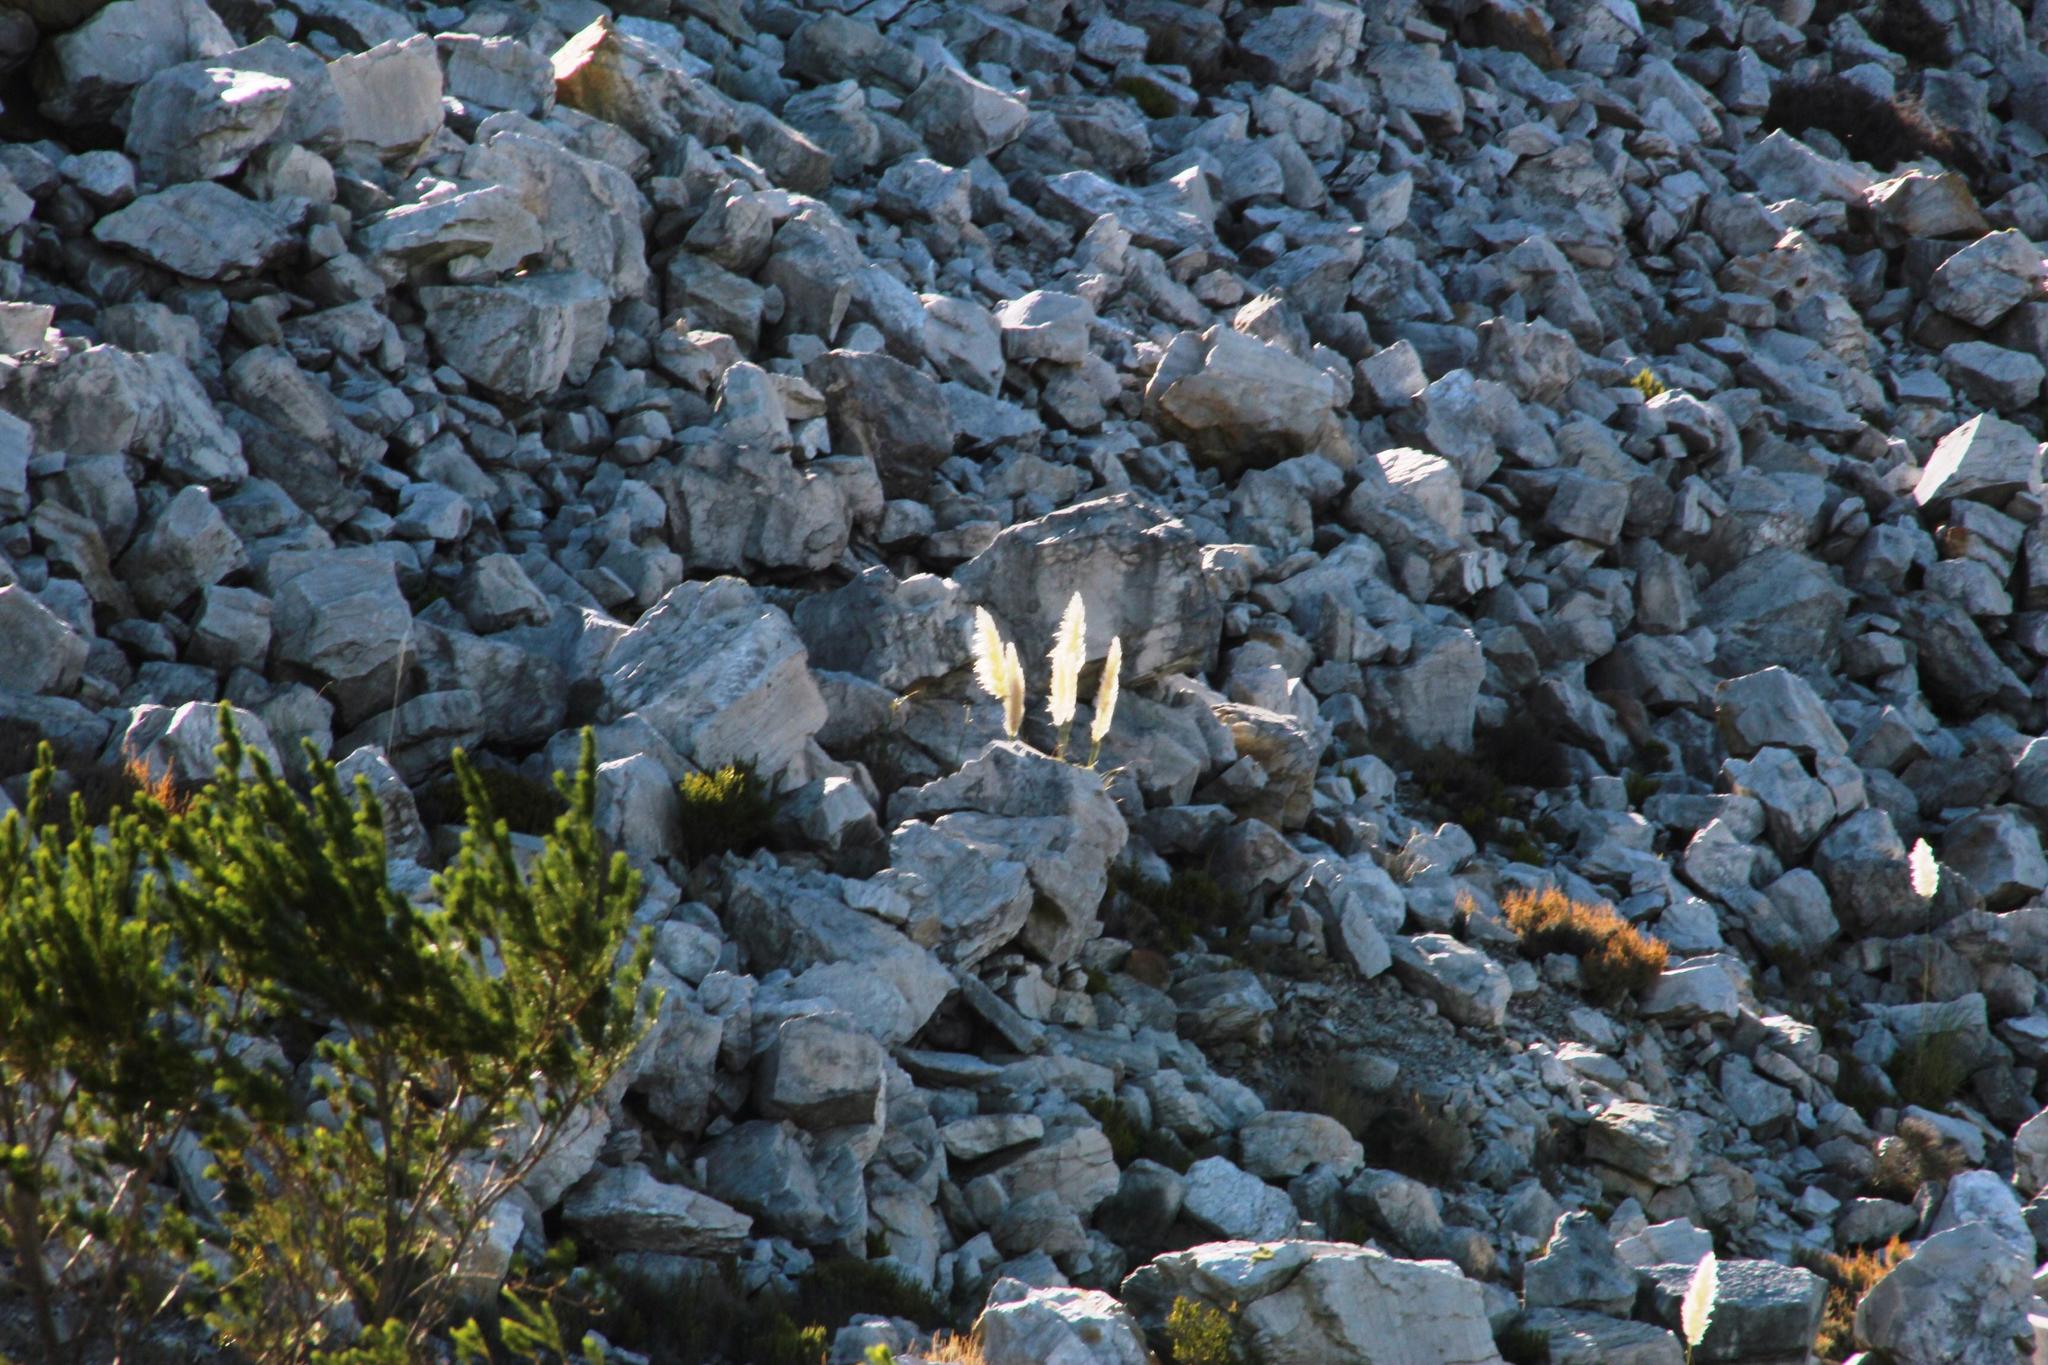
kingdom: Plantae
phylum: Tracheophyta
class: Liliopsida
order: Poales
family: Poaceae
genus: Cortaderia
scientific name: Cortaderia selloana
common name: Uruguayan pampas grass
